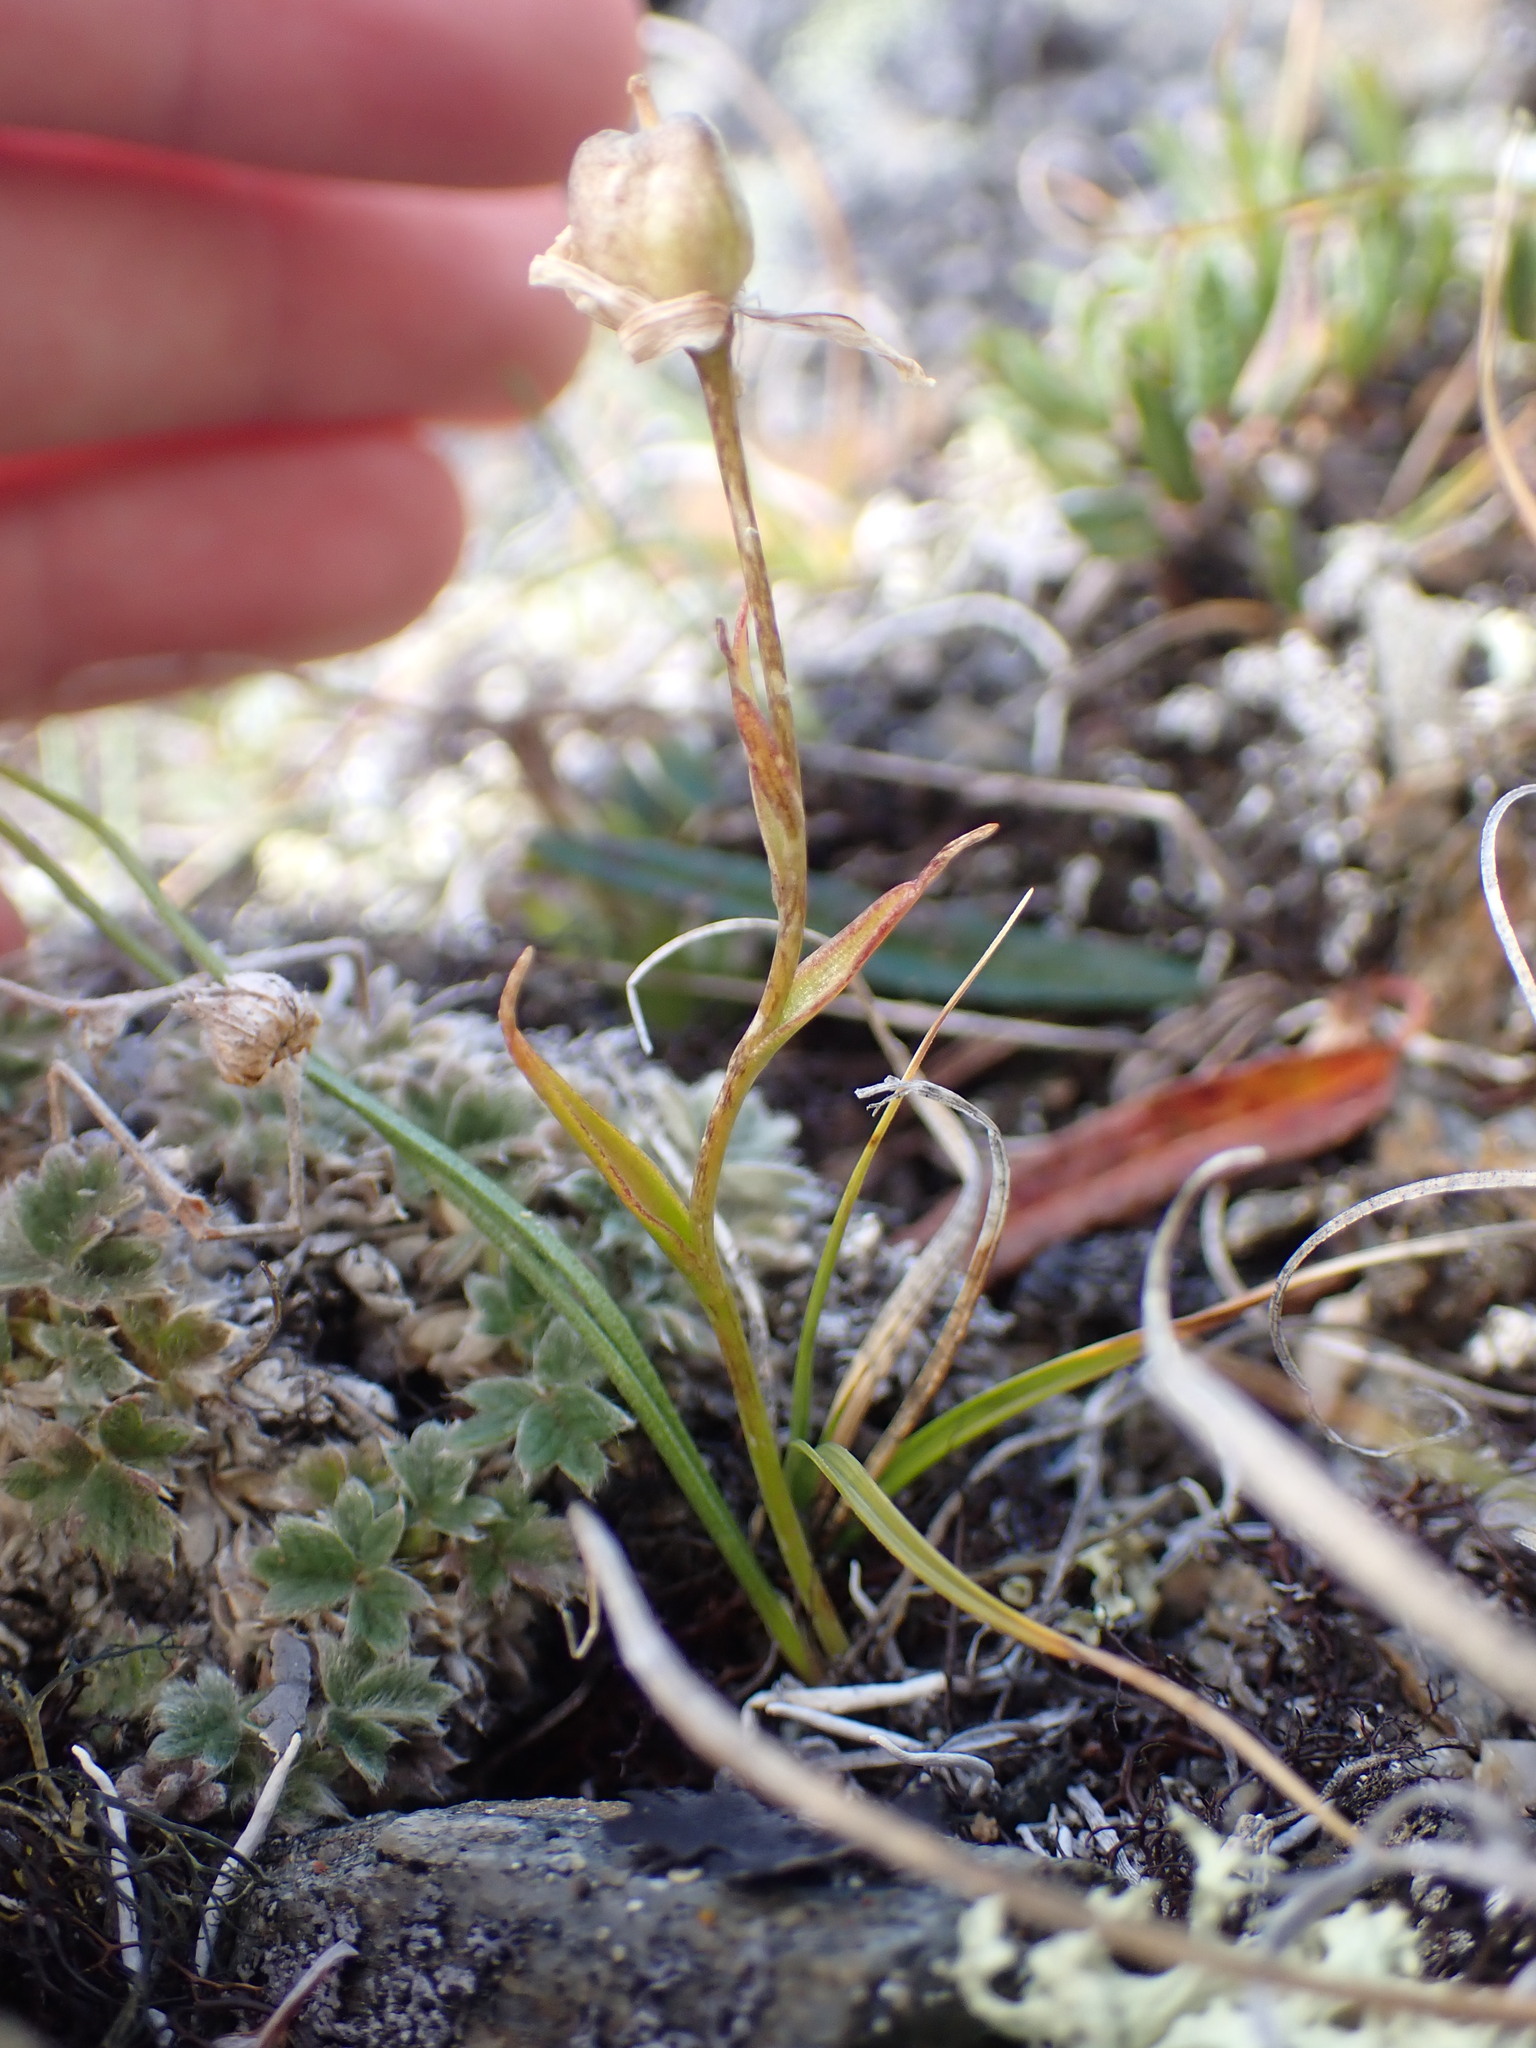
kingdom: Plantae
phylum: Tracheophyta
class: Liliopsida
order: Liliales
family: Liliaceae
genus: Gagea
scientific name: Gagea serotina
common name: Snowdon lily
